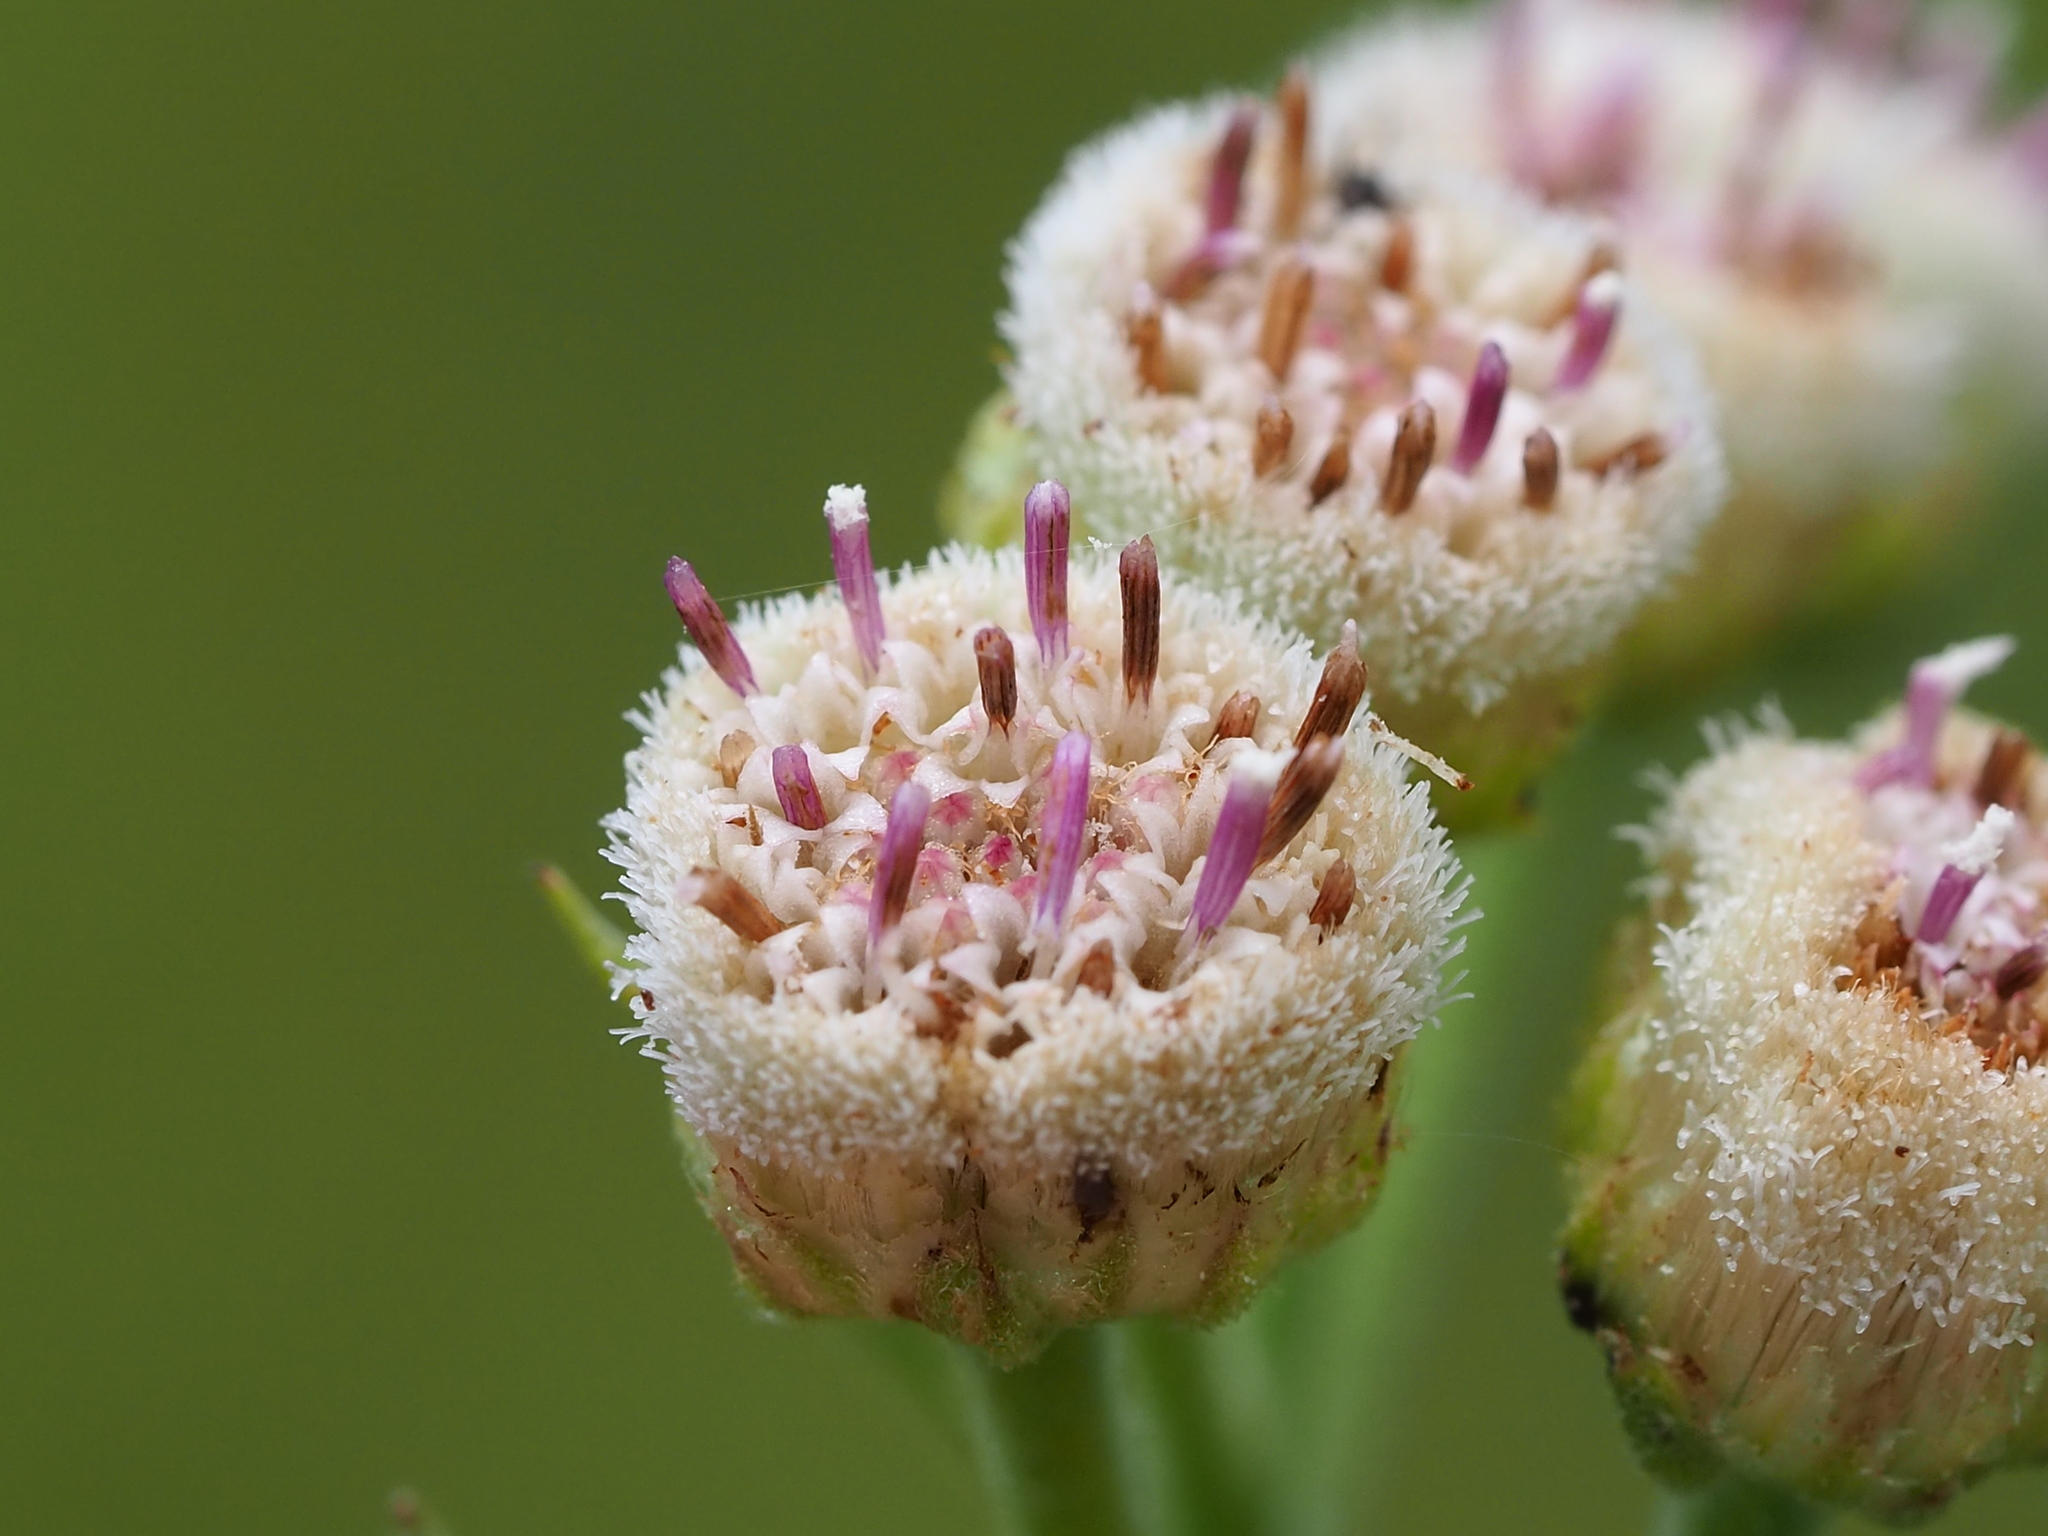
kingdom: Plantae
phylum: Tracheophyta
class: Magnoliopsida
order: Asterales
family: Asteraceae
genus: Pluchea
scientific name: Pluchea carolinensis
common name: Marsh fleabane
